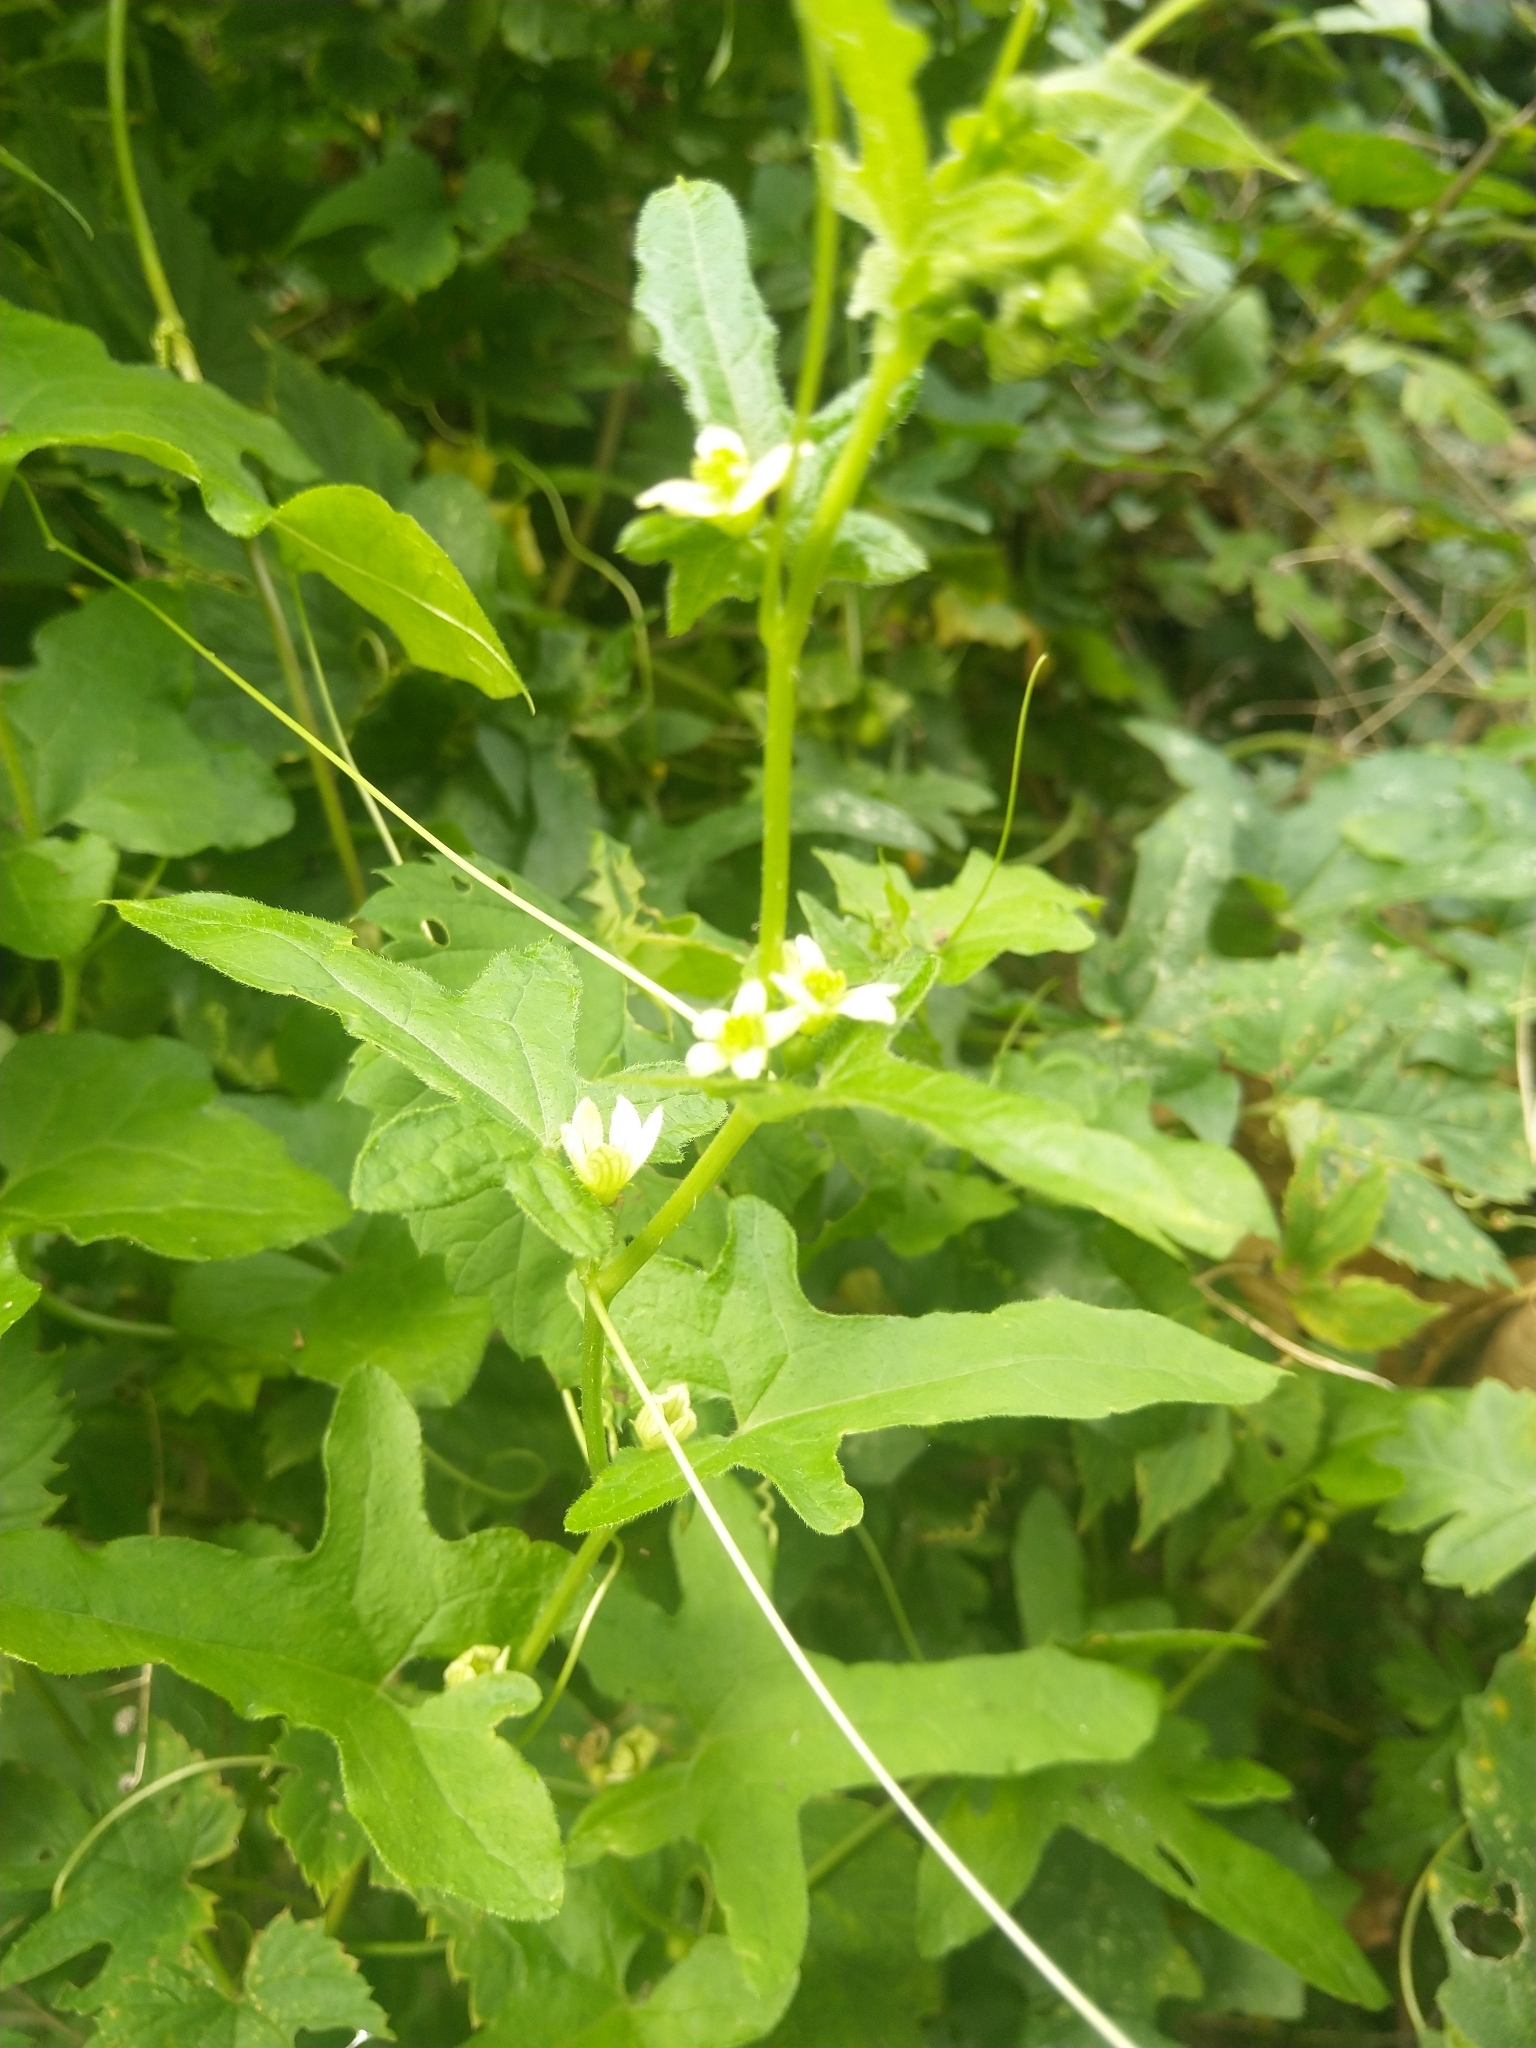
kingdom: Plantae
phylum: Tracheophyta
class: Magnoliopsida
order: Cucurbitales
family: Cucurbitaceae
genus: Bryonia
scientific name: Bryonia cretica
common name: Cretan bryony
